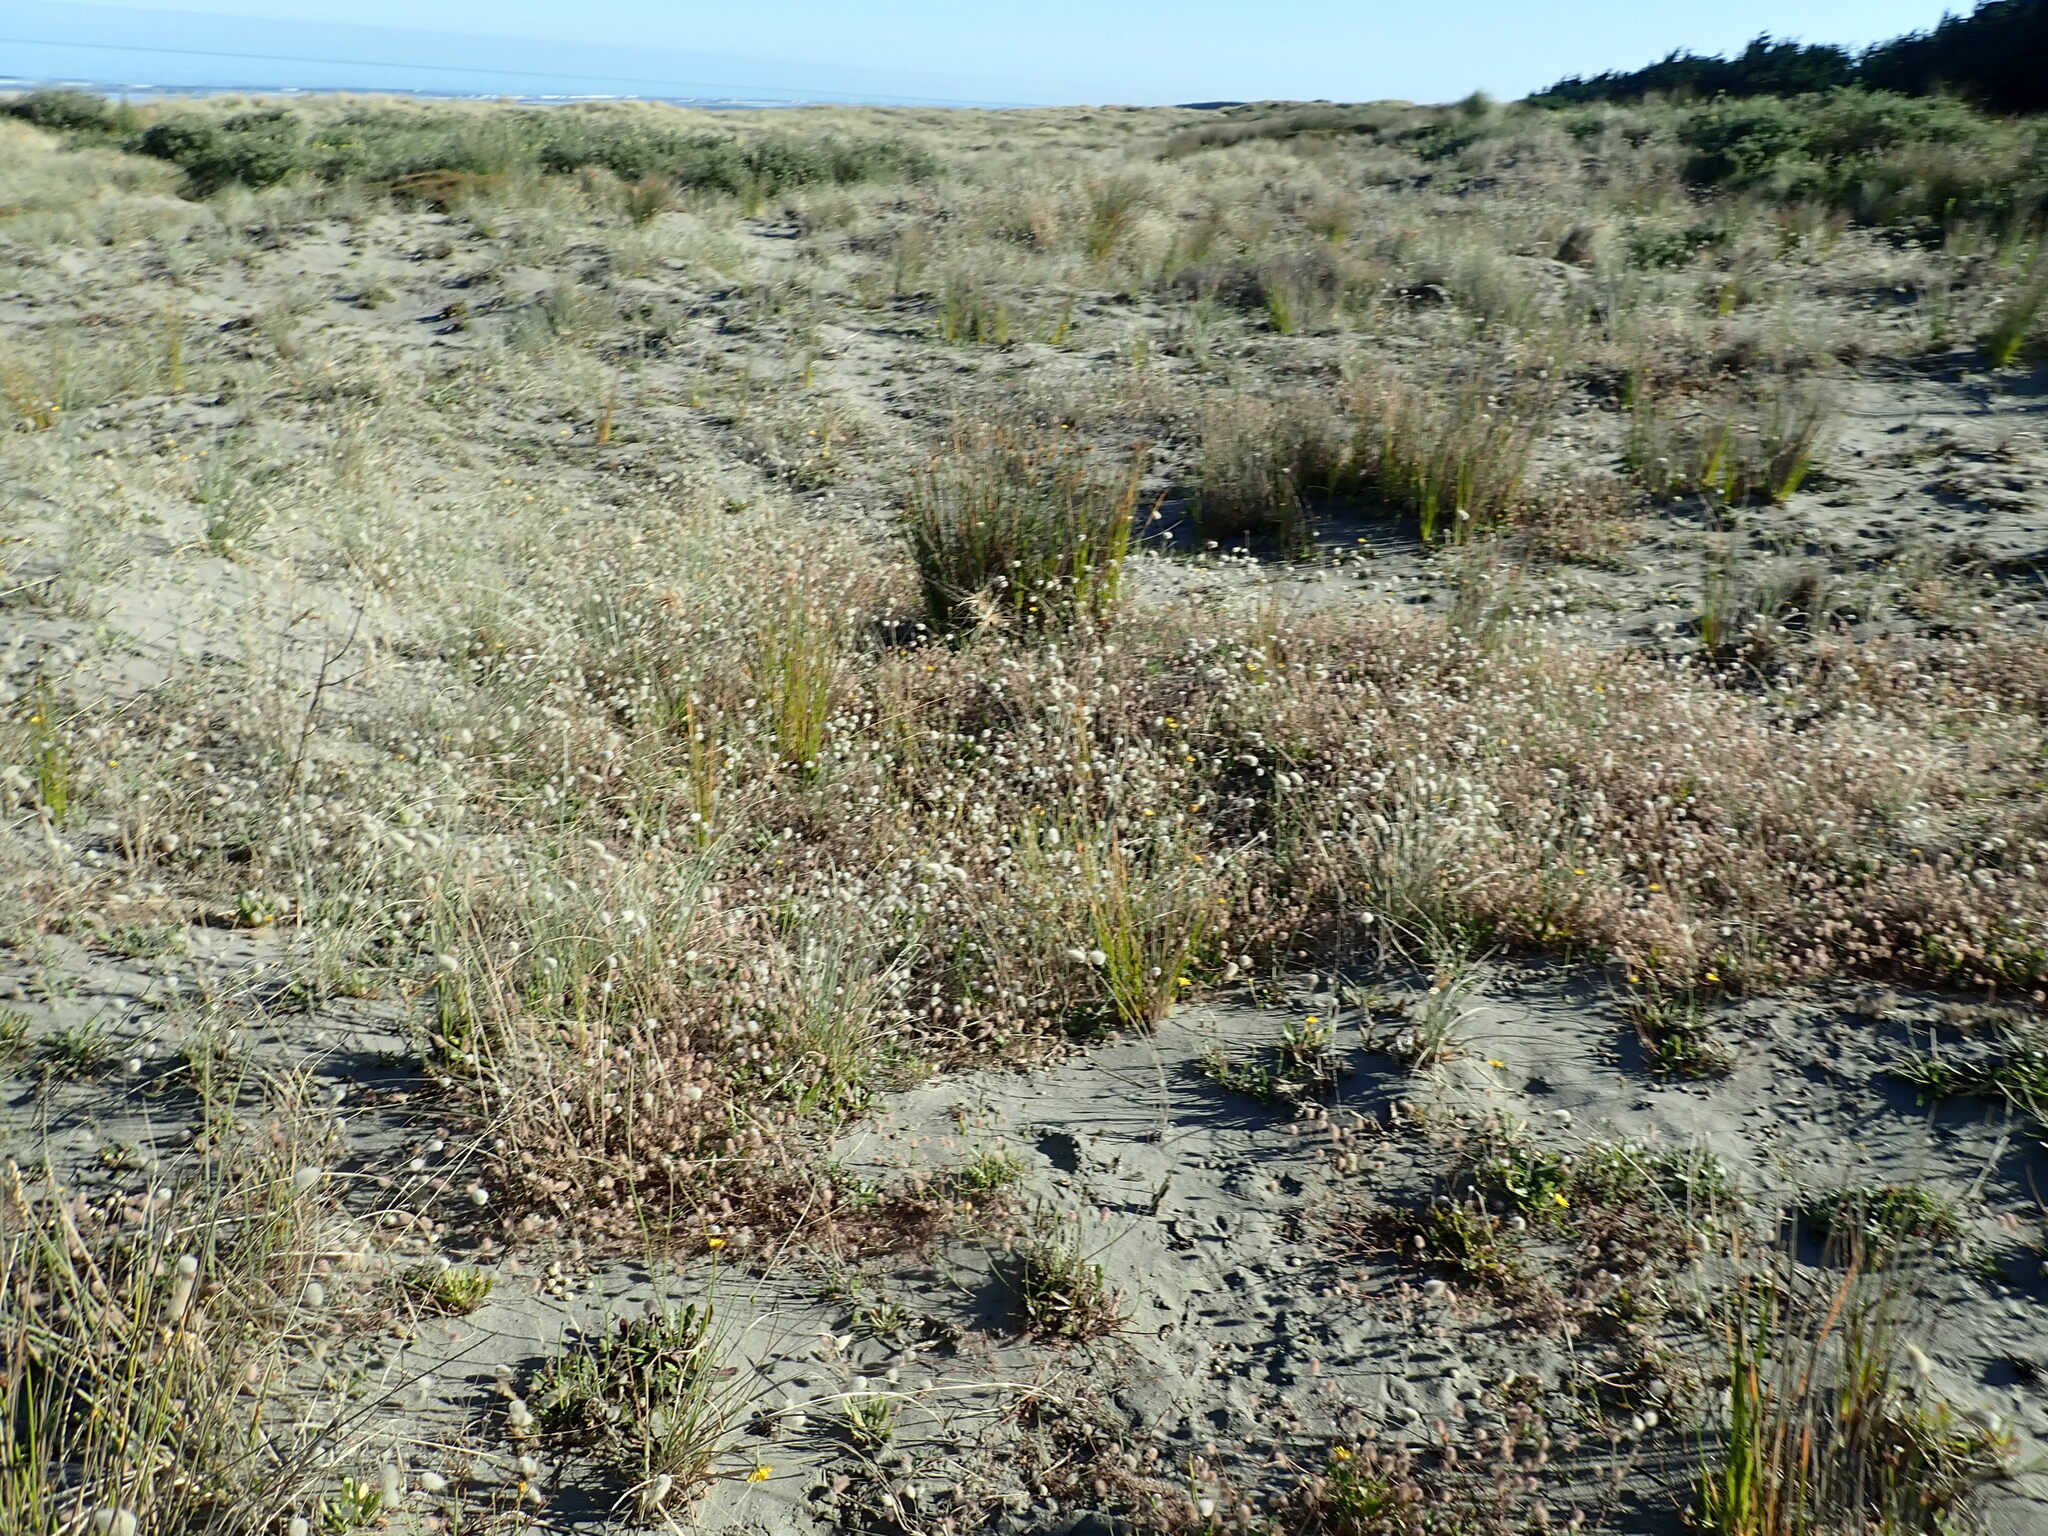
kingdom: Plantae
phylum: Tracheophyta
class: Liliopsida
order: Poales
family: Poaceae
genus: Lagurus
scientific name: Lagurus ovatus
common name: Hare's-tail
